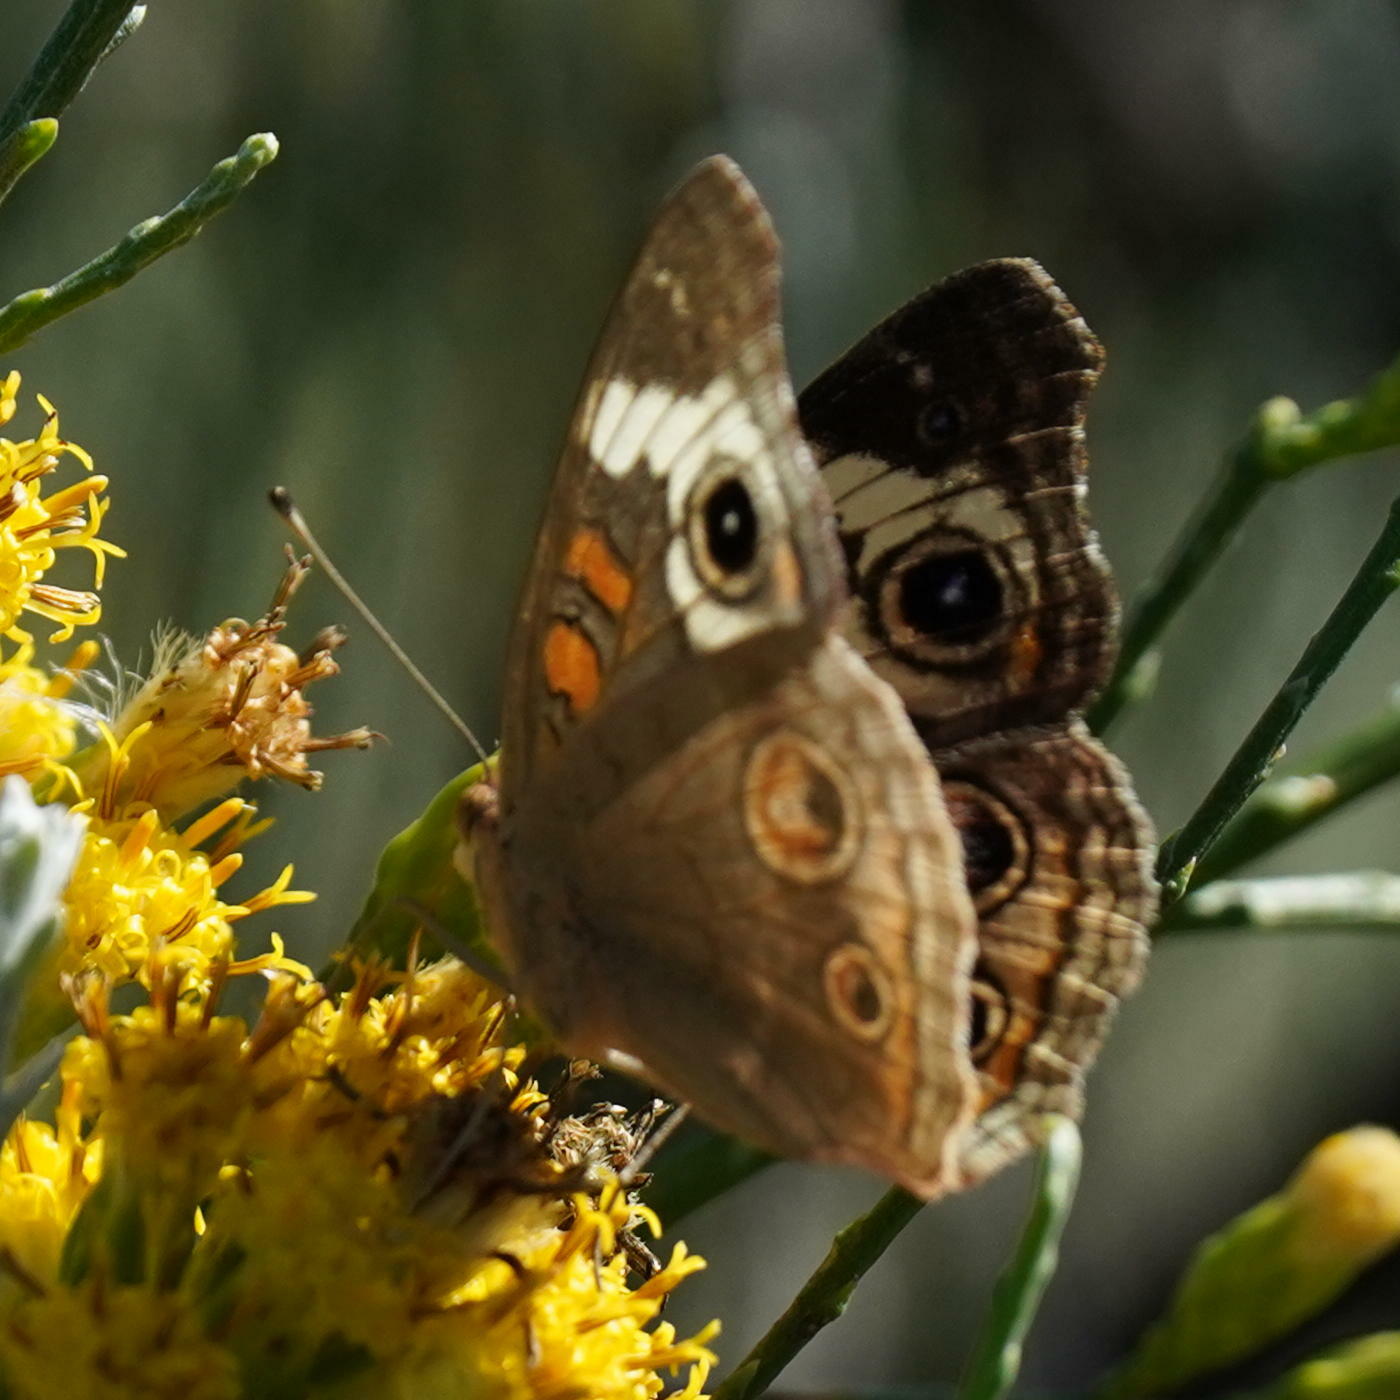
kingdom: Animalia
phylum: Arthropoda
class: Insecta
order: Lepidoptera
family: Nymphalidae
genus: Junonia
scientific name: Junonia grisea
